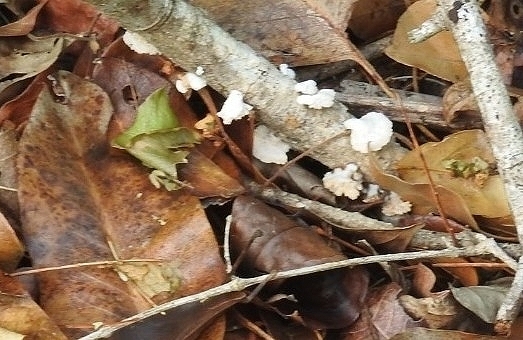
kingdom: Fungi
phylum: Basidiomycota
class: Agaricomycetes
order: Agaricales
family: Schizophyllaceae
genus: Schizophyllum
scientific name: Schizophyllum commune
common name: Common porecrust
